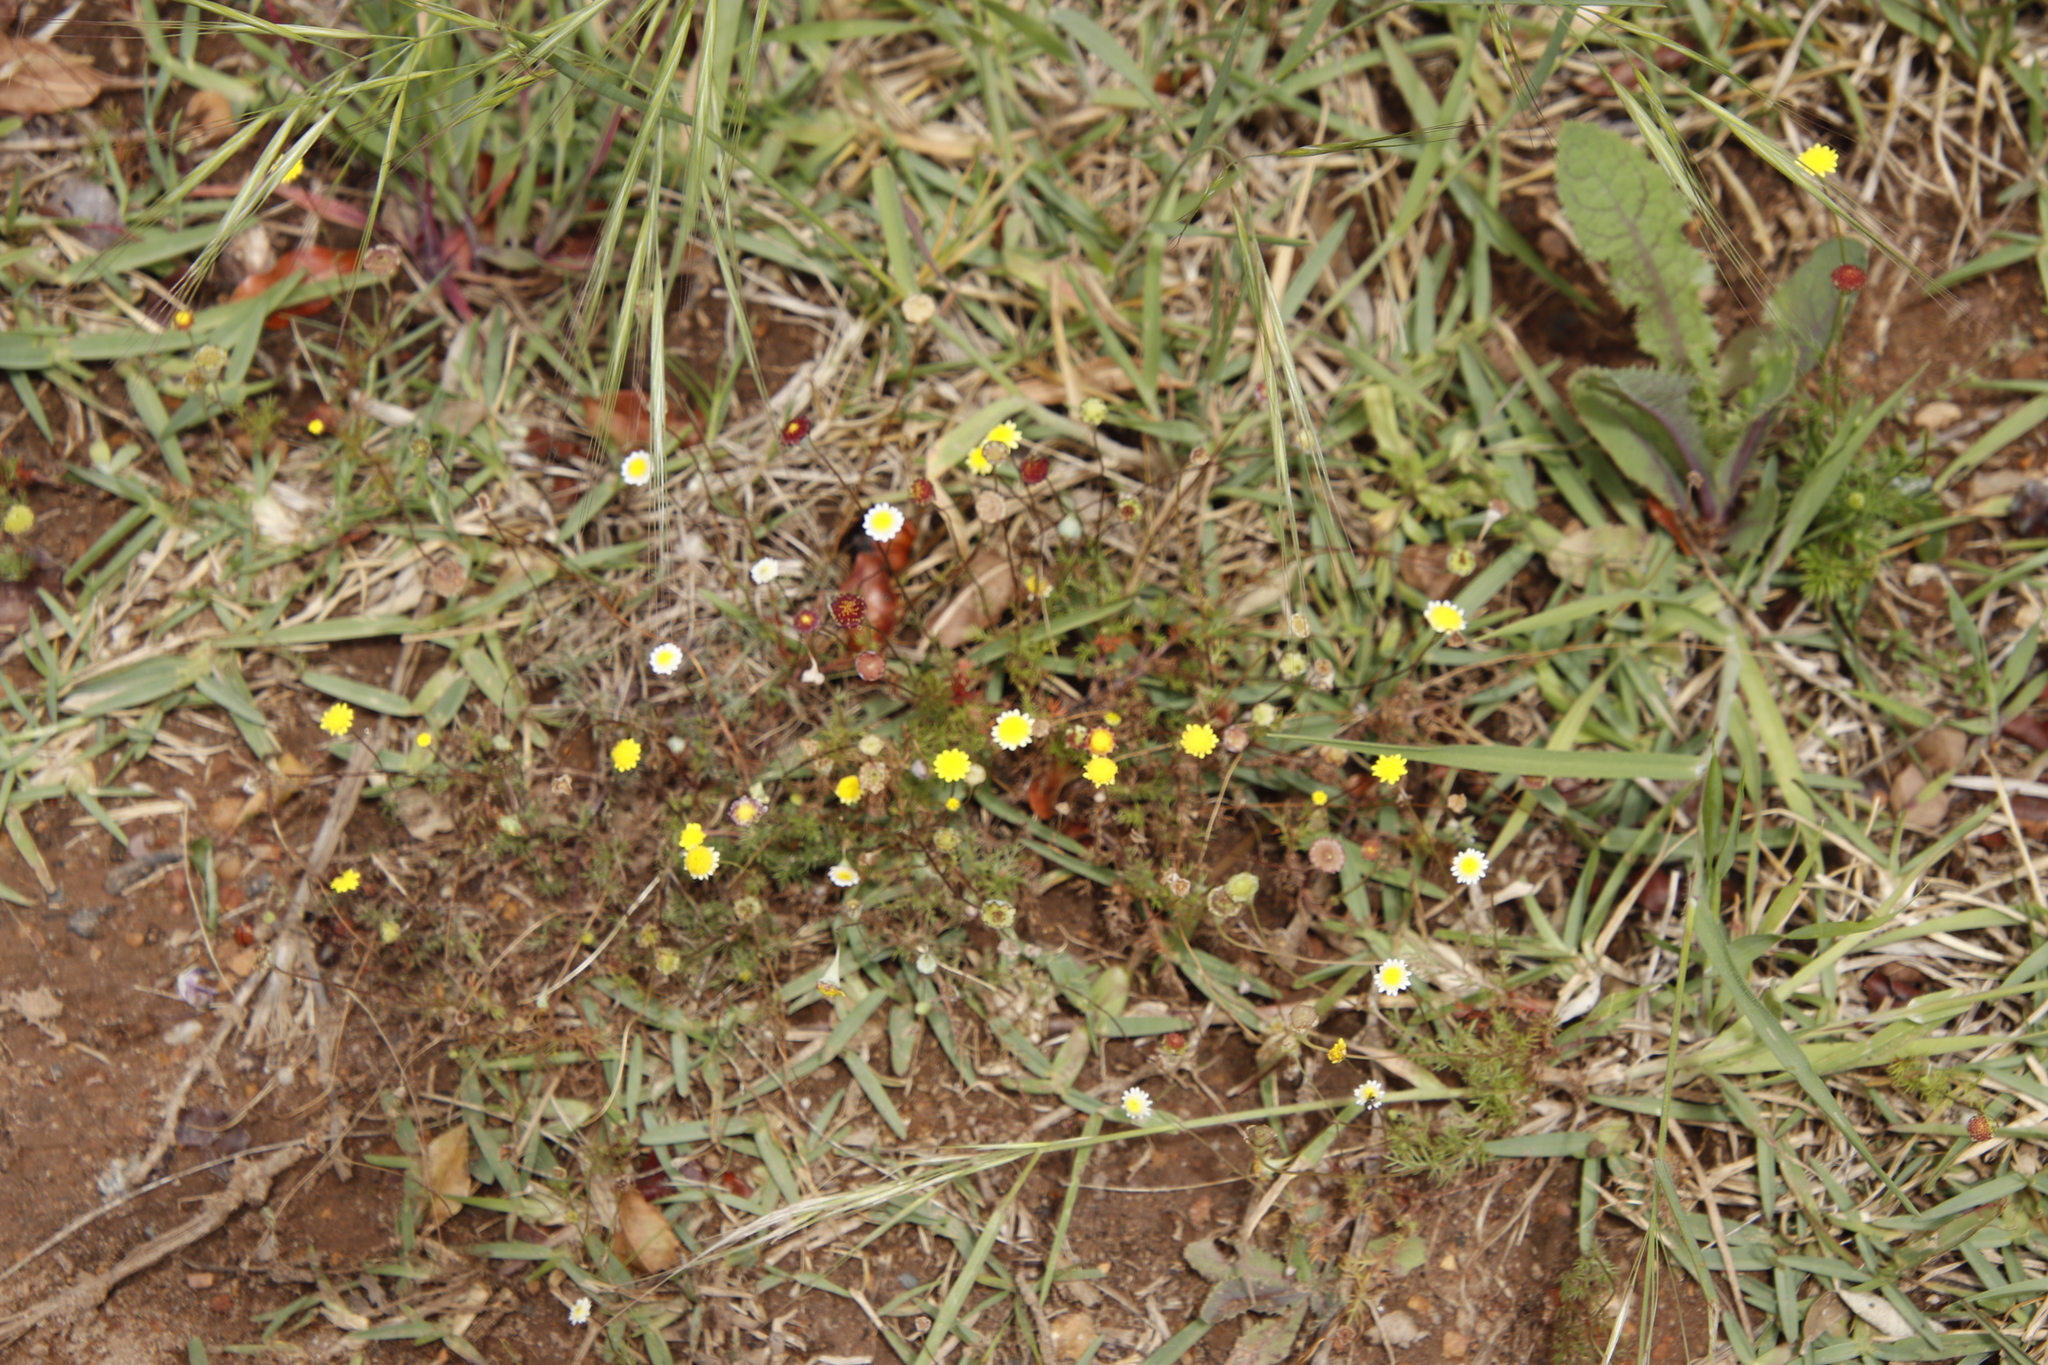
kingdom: Plantae
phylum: Tracheophyta
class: Magnoliopsida
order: Asterales
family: Asteraceae
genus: Cotula
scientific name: Cotula pruinosa
